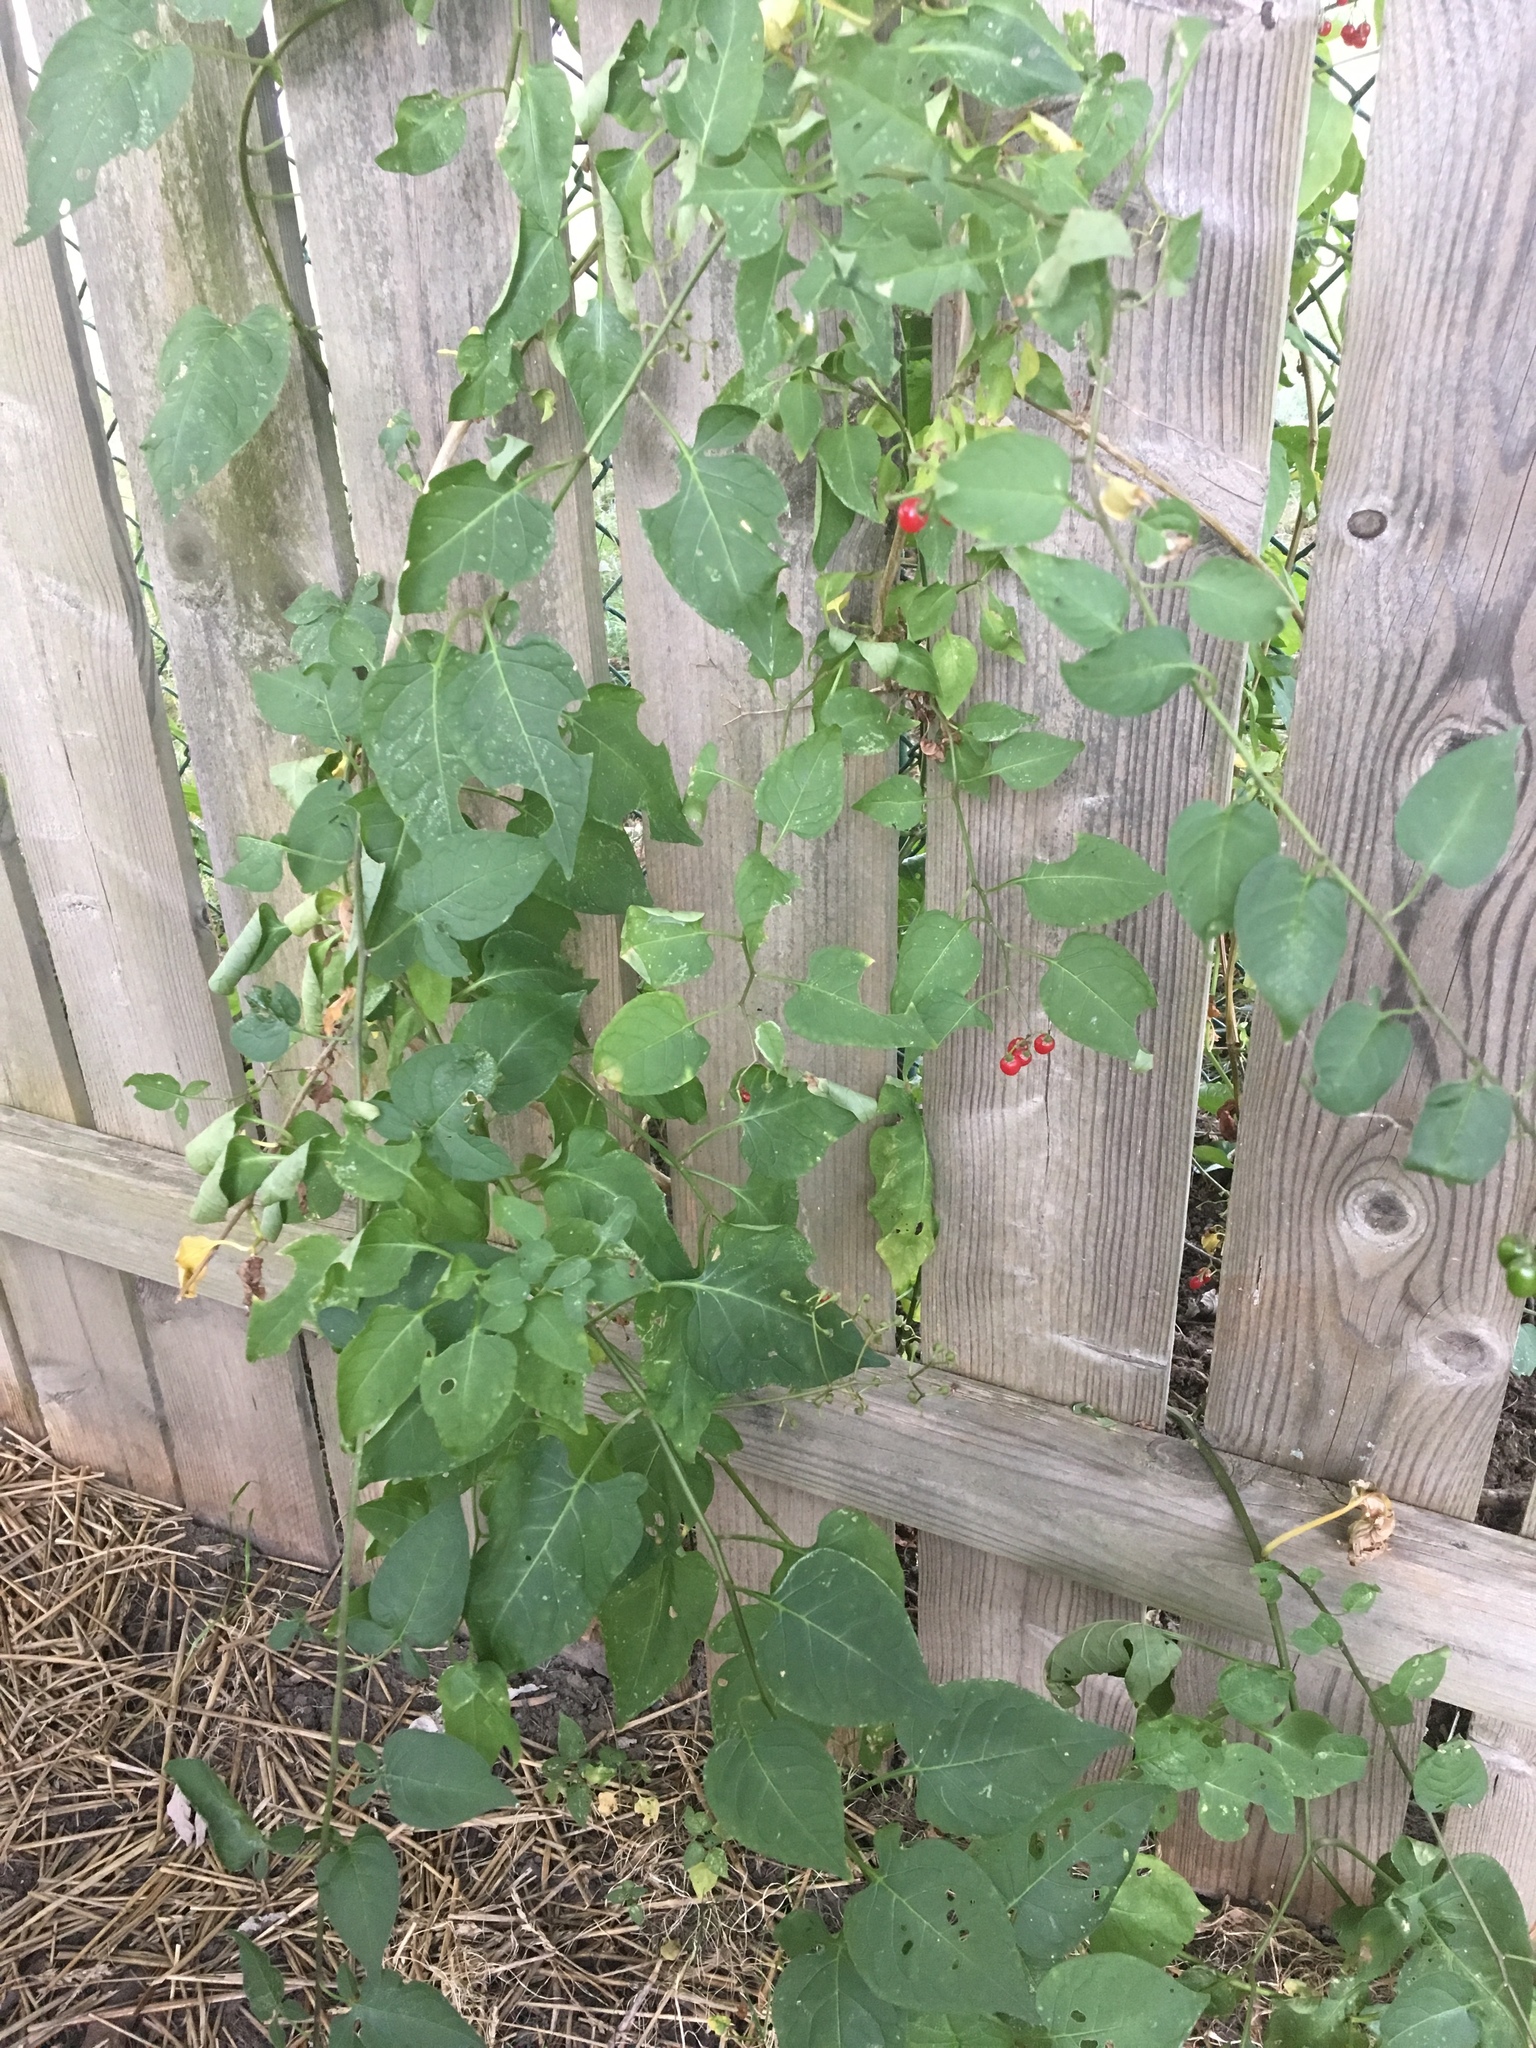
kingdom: Plantae
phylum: Tracheophyta
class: Magnoliopsida
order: Solanales
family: Solanaceae
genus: Solanum
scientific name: Solanum dulcamara
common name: Climbing nightshade
